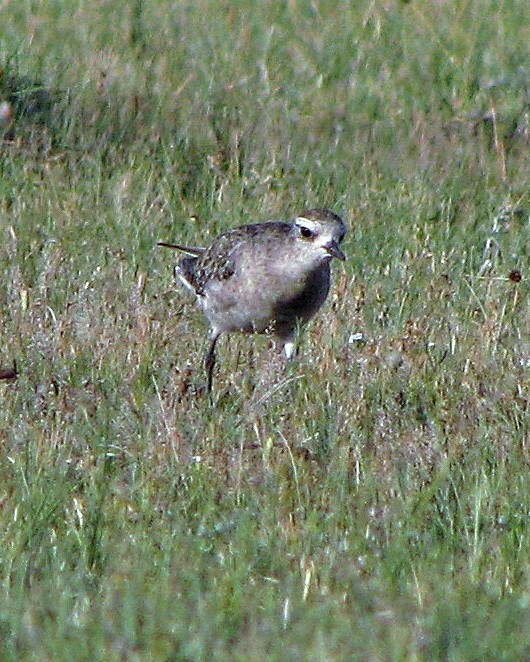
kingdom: Animalia
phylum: Chordata
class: Aves
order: Charadriiformes
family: Charadriidae
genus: Pluvialis
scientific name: Pluvialis dominica
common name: American golden plover
